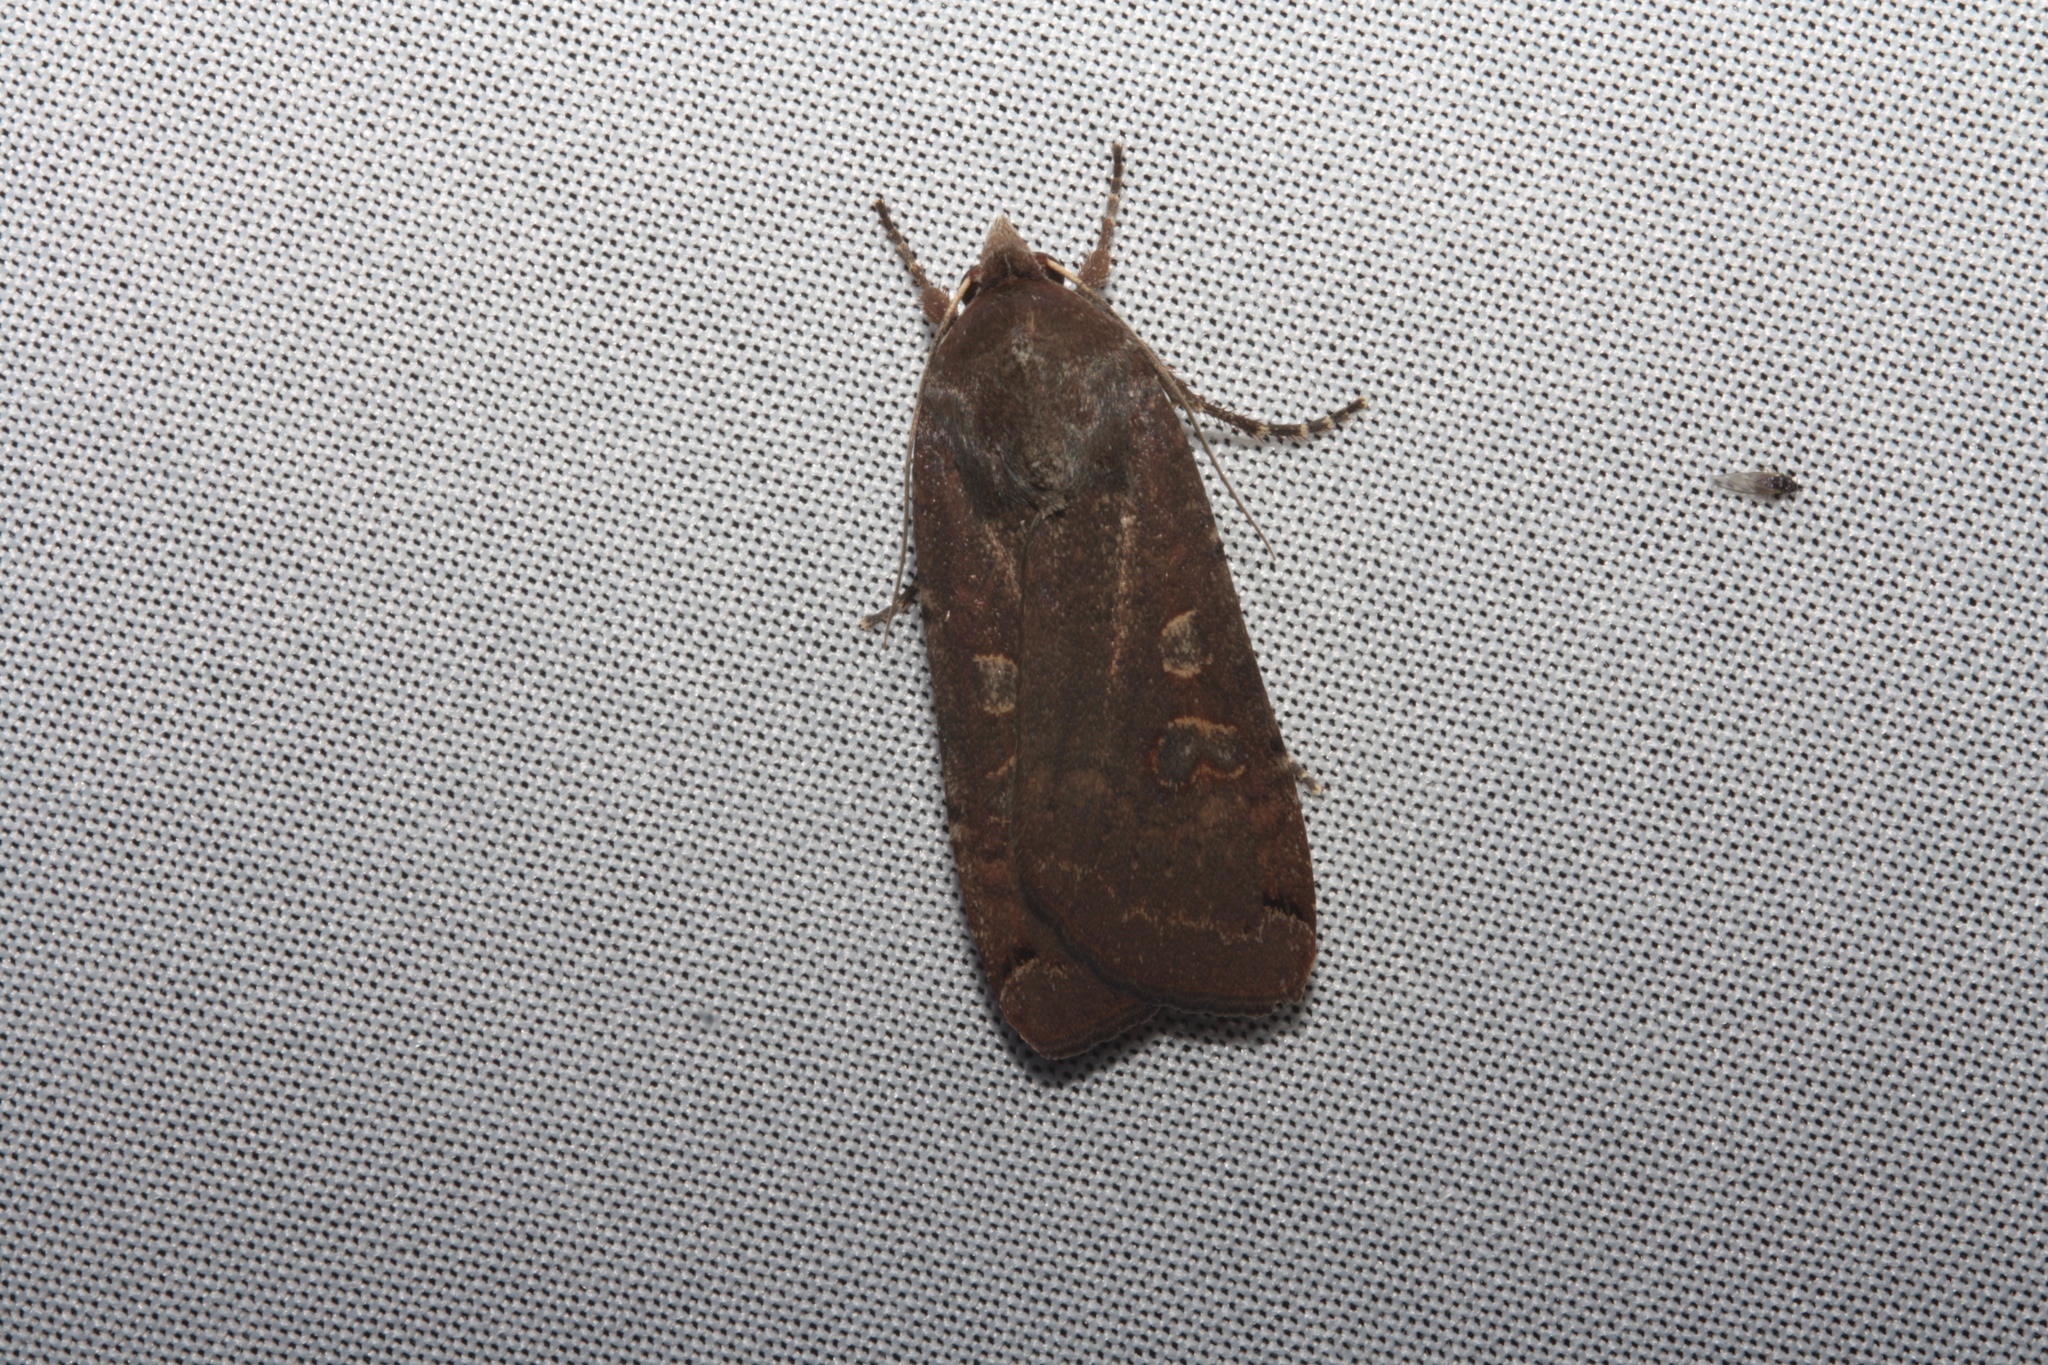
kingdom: Animalia
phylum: Arthropoda
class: Insecta
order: Lepidoptera
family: Noctuidae
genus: Noctua
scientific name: Noctua pronuba
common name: Large yellow underwing
